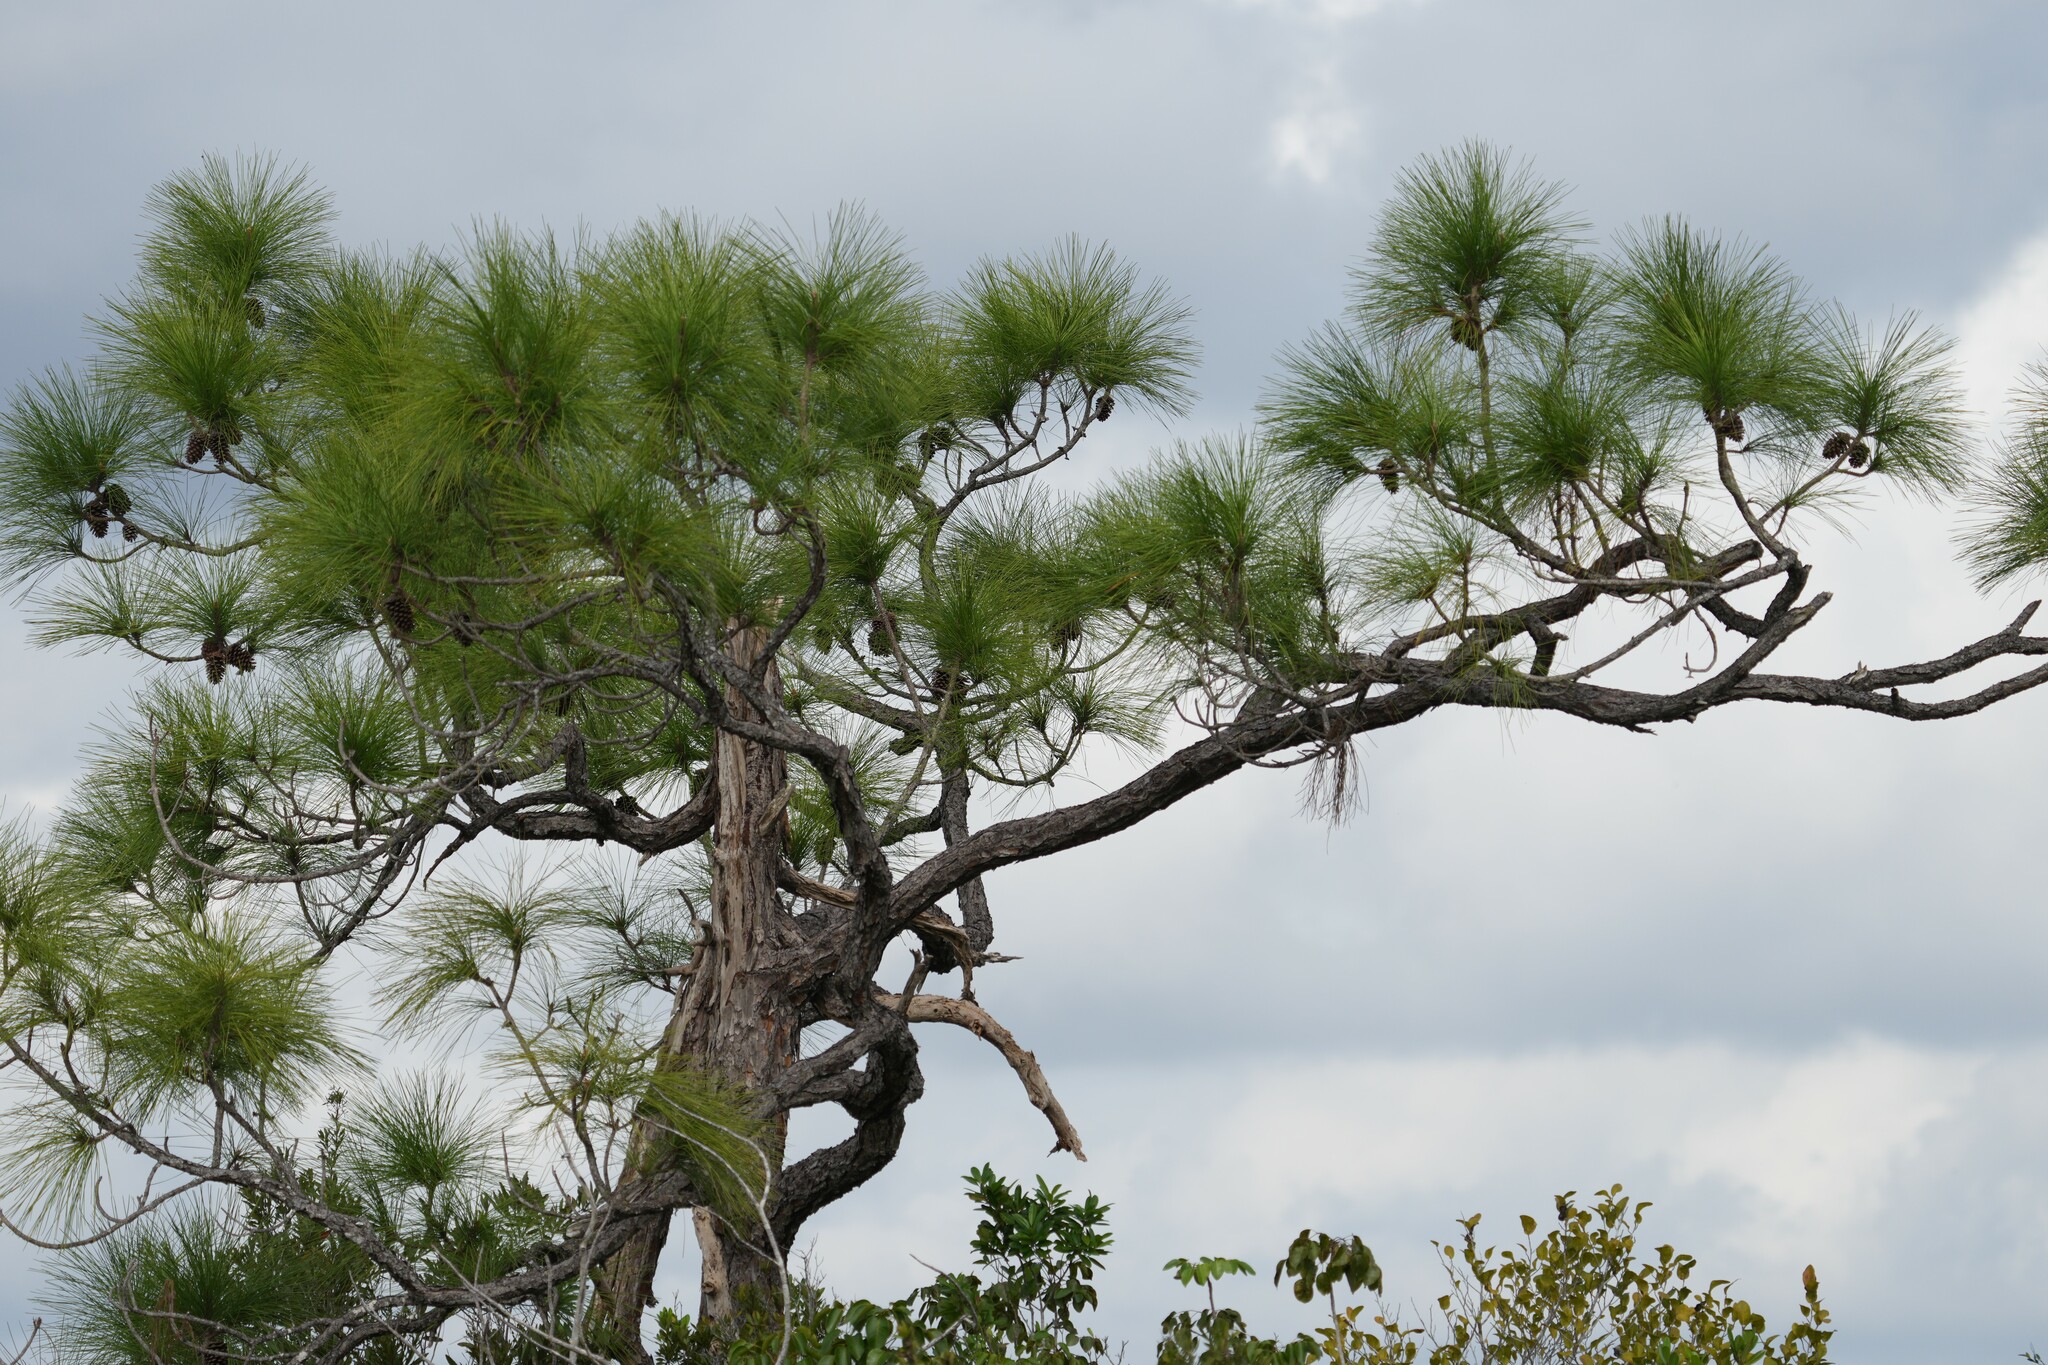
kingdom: Plantae
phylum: Tracheophyta
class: Pinopsida
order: Pinales
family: Pinaceae
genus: Pinus
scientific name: Pinus elliottii
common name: Slash pine
